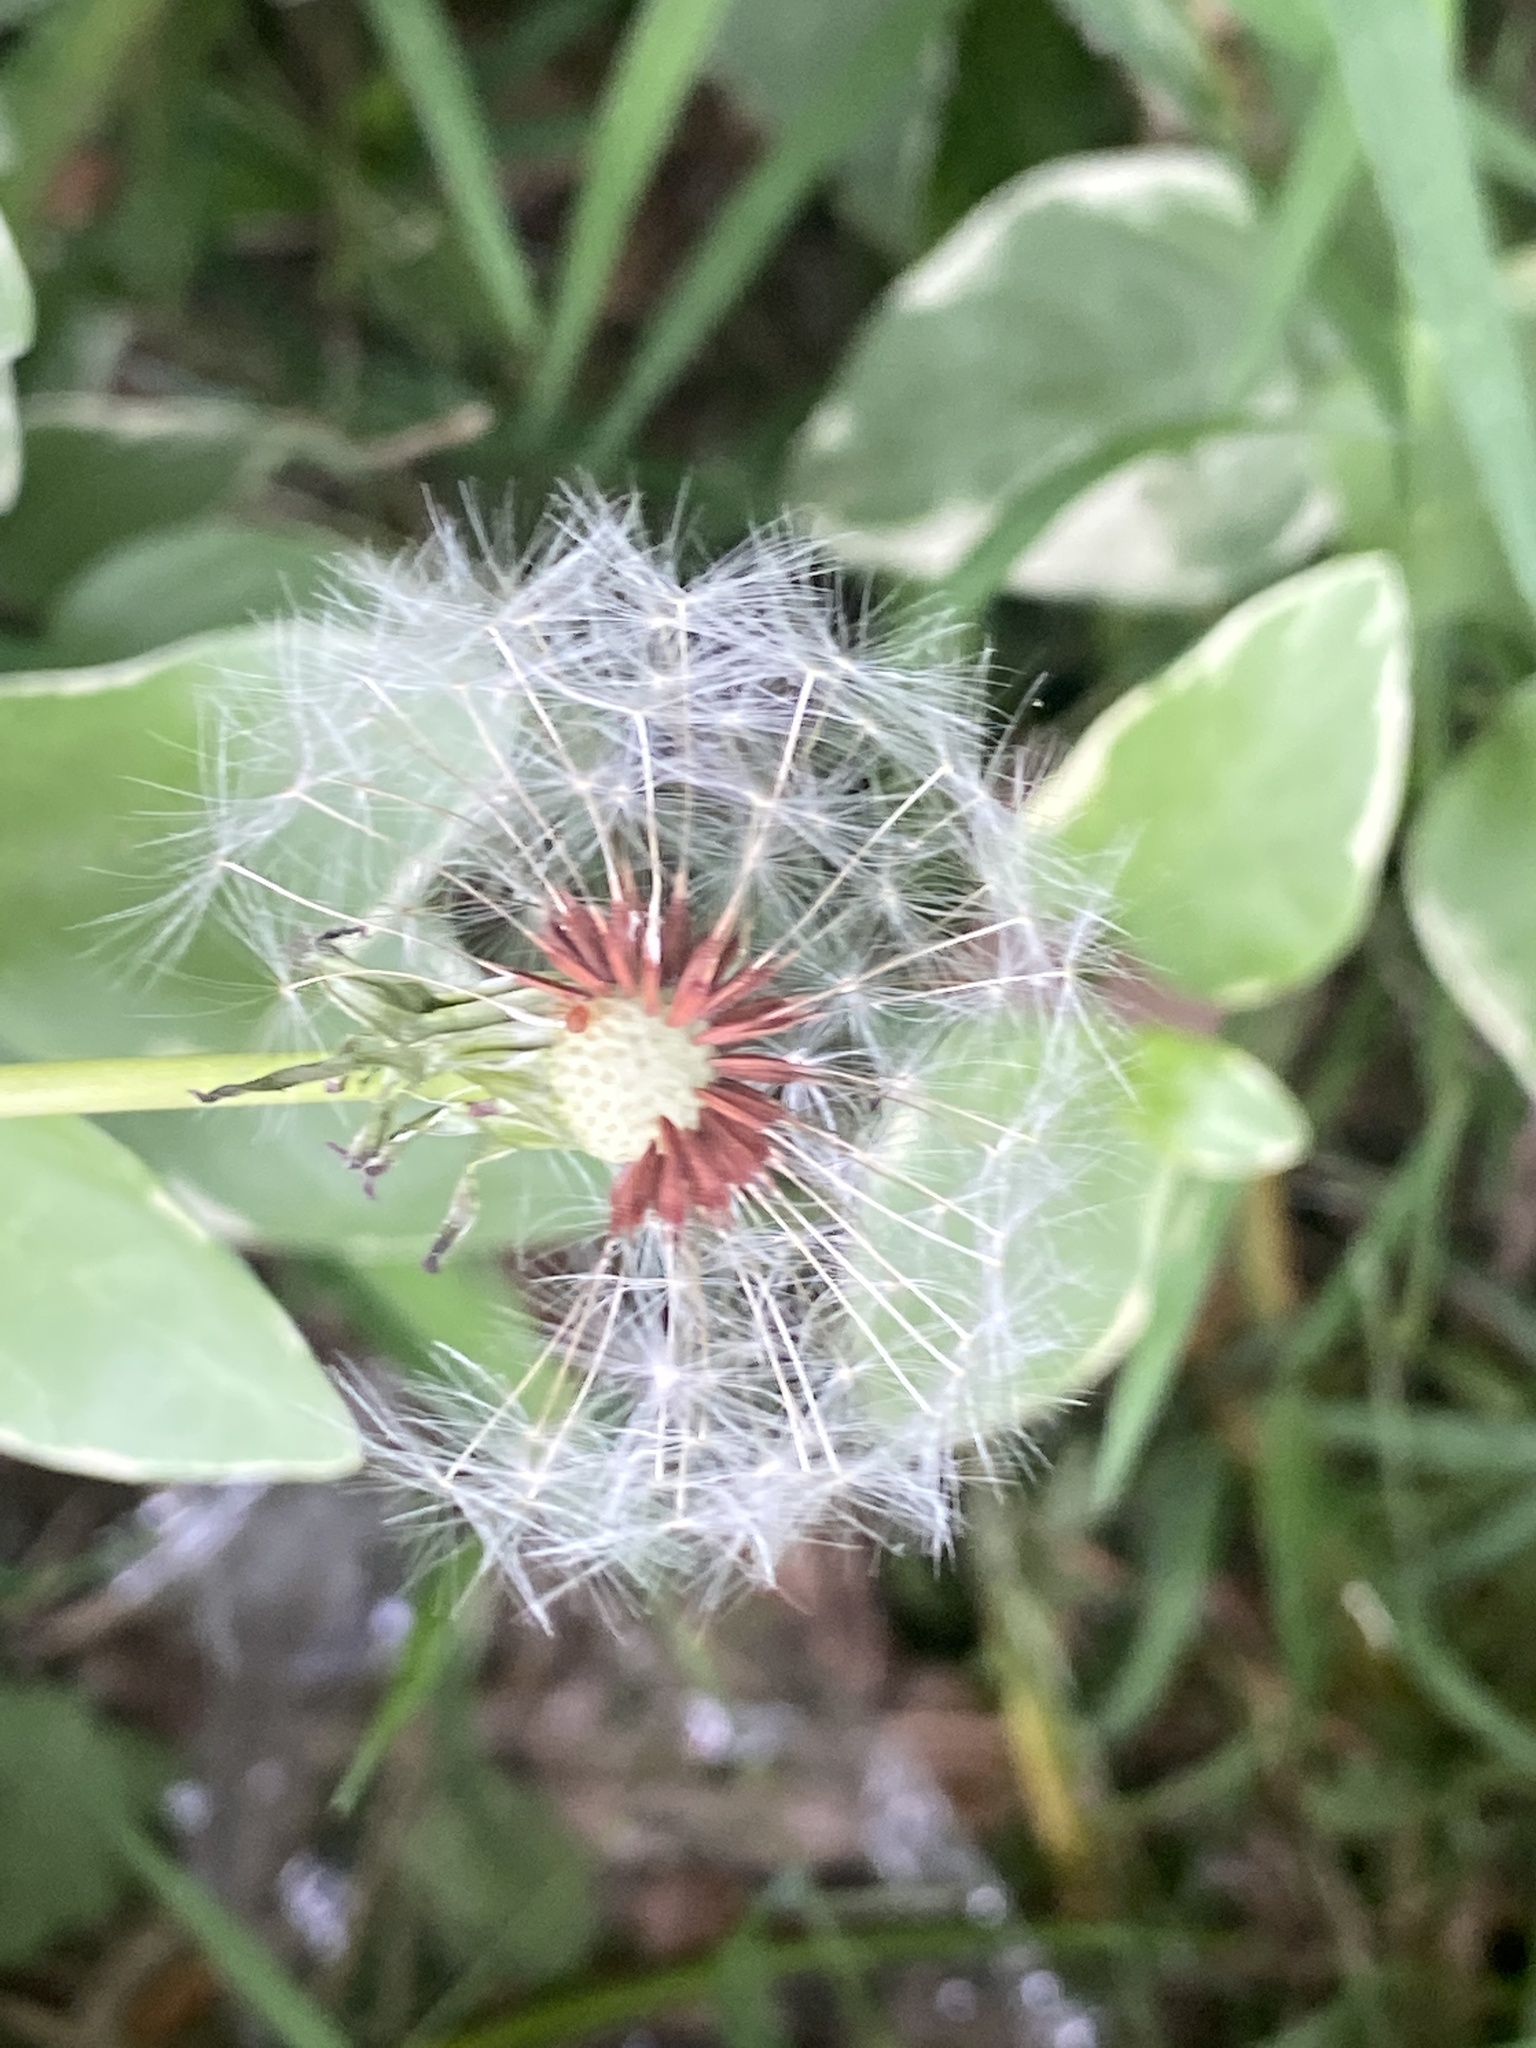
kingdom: Plantae
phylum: Tracheophyta
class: Magnoliopsida
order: Asterales
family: Asteraceae
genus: Taraxacum
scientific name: Taraxacum erythrospermum
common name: Rock dandelion
